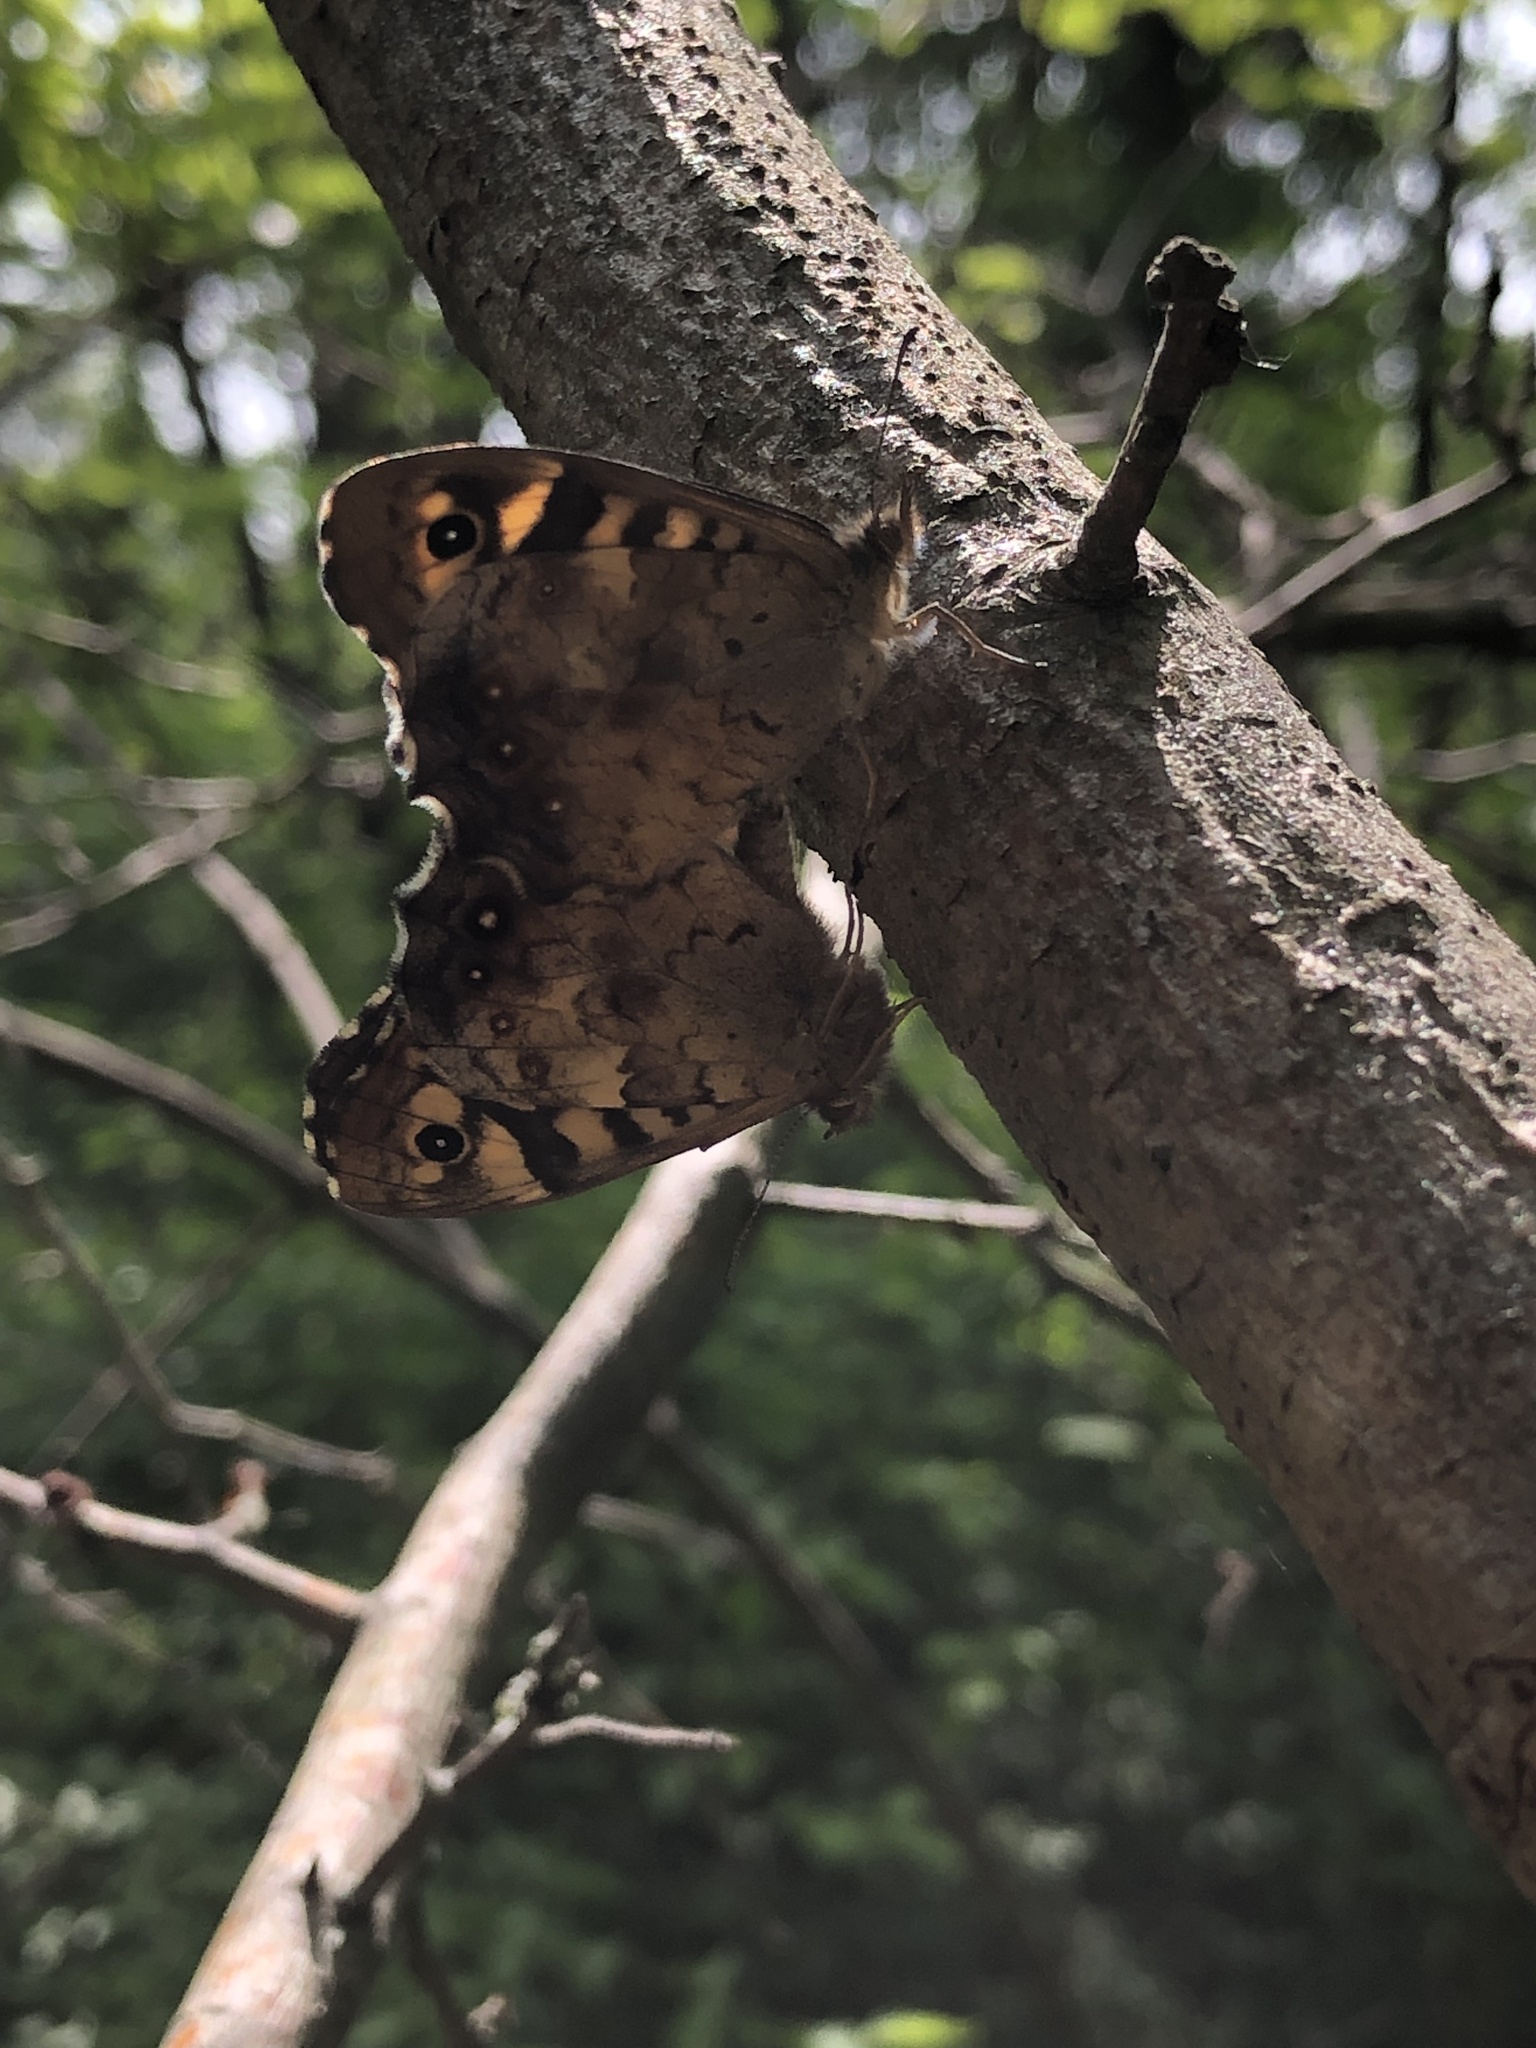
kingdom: Animalia
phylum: Arthropoda
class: Insecta
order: Lepidoptera
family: Nymphalidae
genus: Pararge
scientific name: Pararge aegeria
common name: Speckled wood
